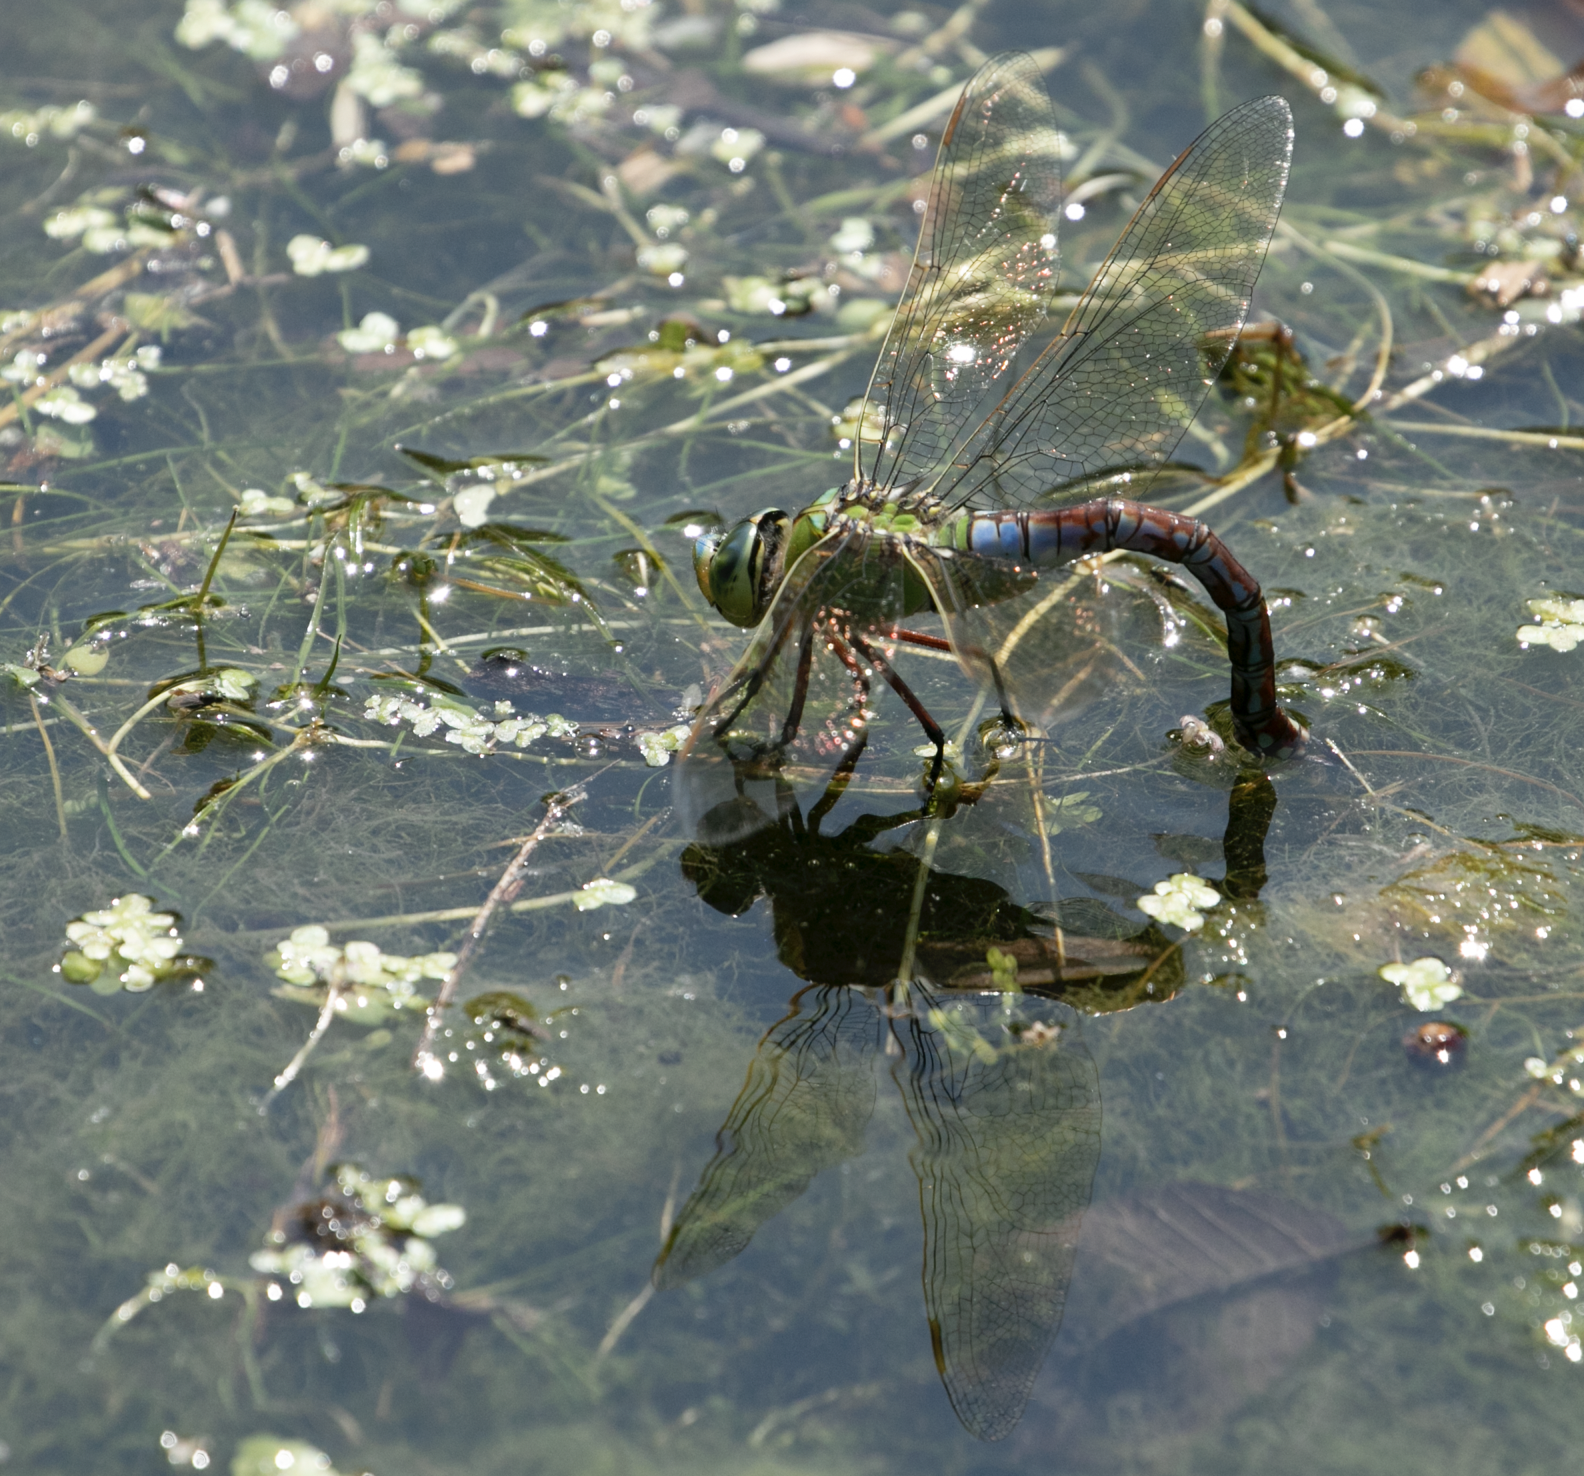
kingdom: Animalia
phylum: Arthropoda
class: Insecta
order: Odonata
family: Aeshnidae
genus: Anax
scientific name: Anax imperator
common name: Emperor dragonfly
